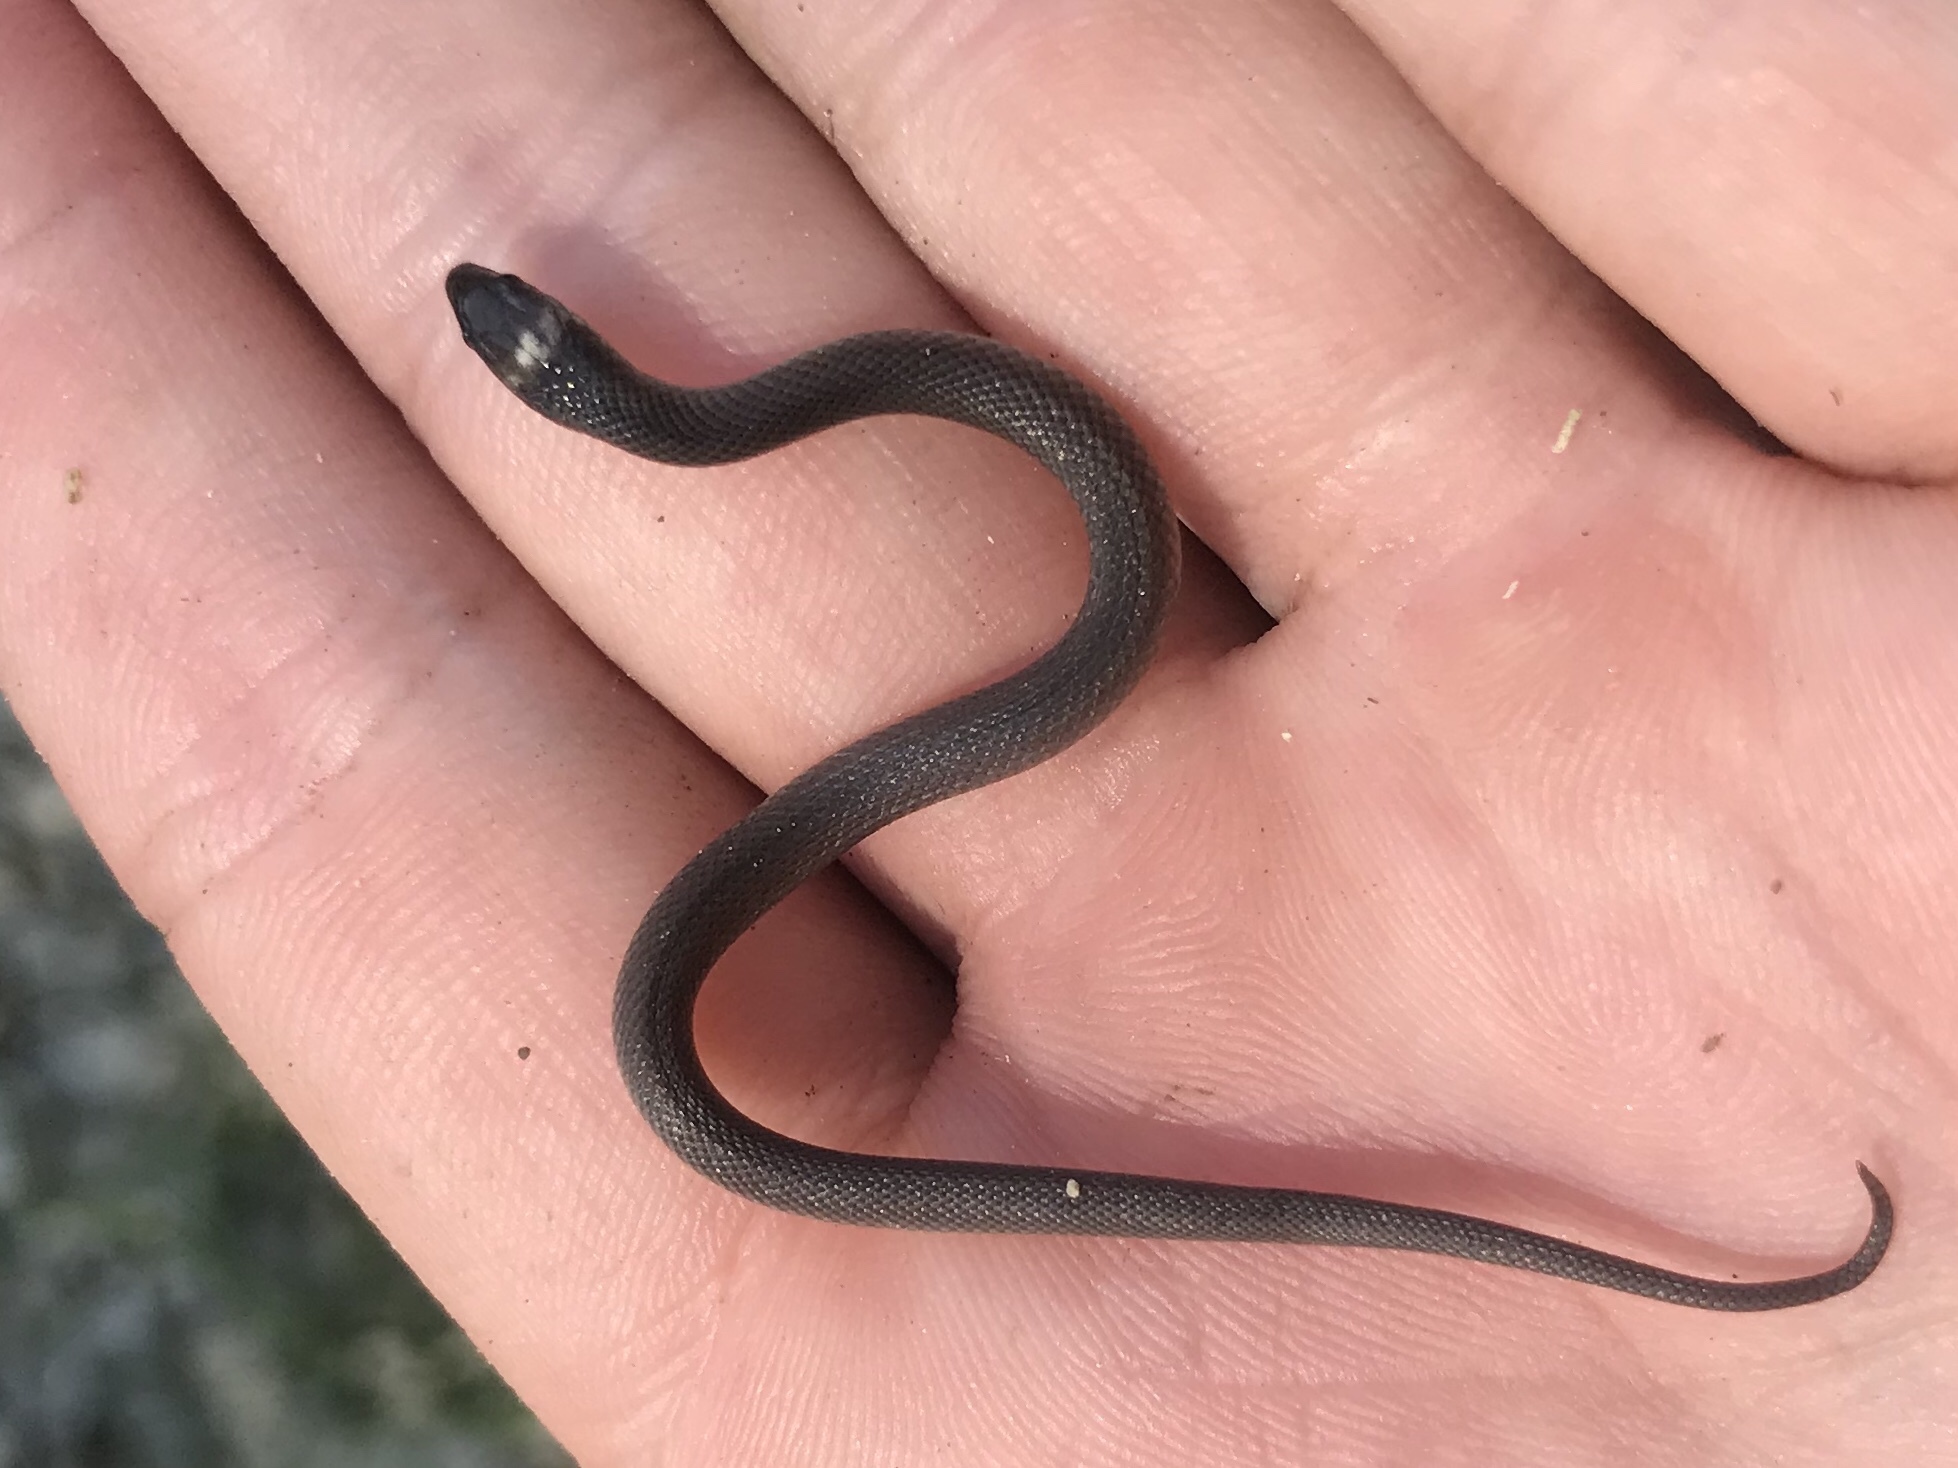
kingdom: Animalia
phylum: Chordata
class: Squamata
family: Colubridae
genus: Haldea
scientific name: Haldea striatula
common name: Rough earth snake
